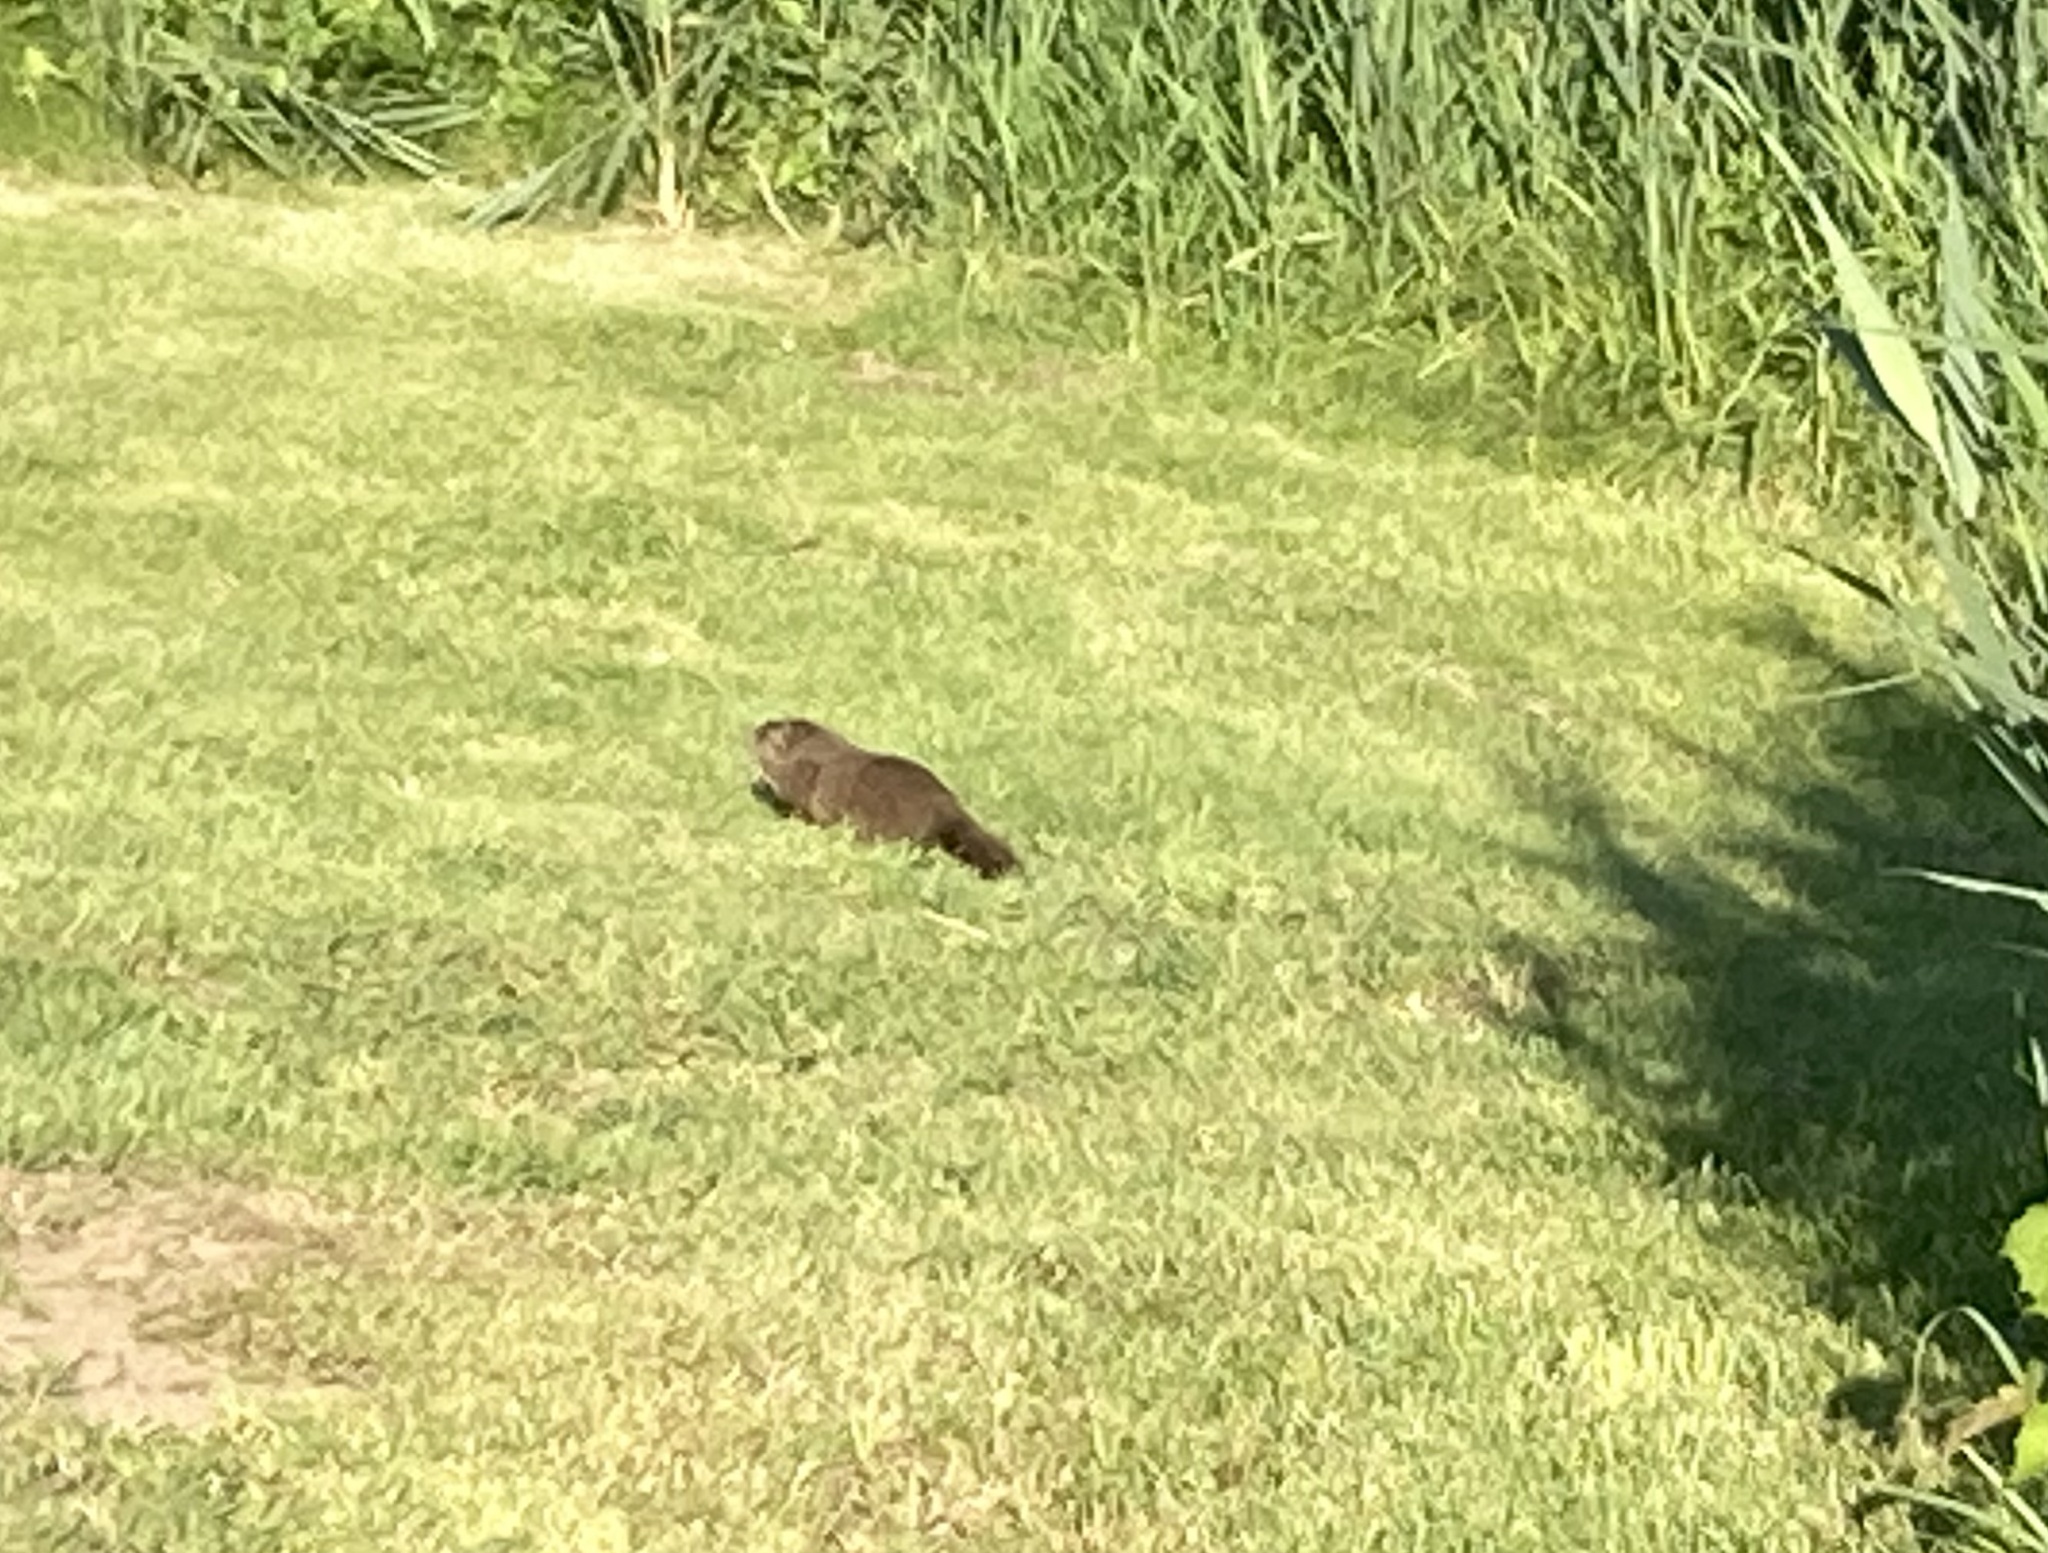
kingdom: Animalia
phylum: Chordata
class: Mammalia
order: Rodentia
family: Sciuridae
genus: Marmota
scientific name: Marmota monax
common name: Groundhog
